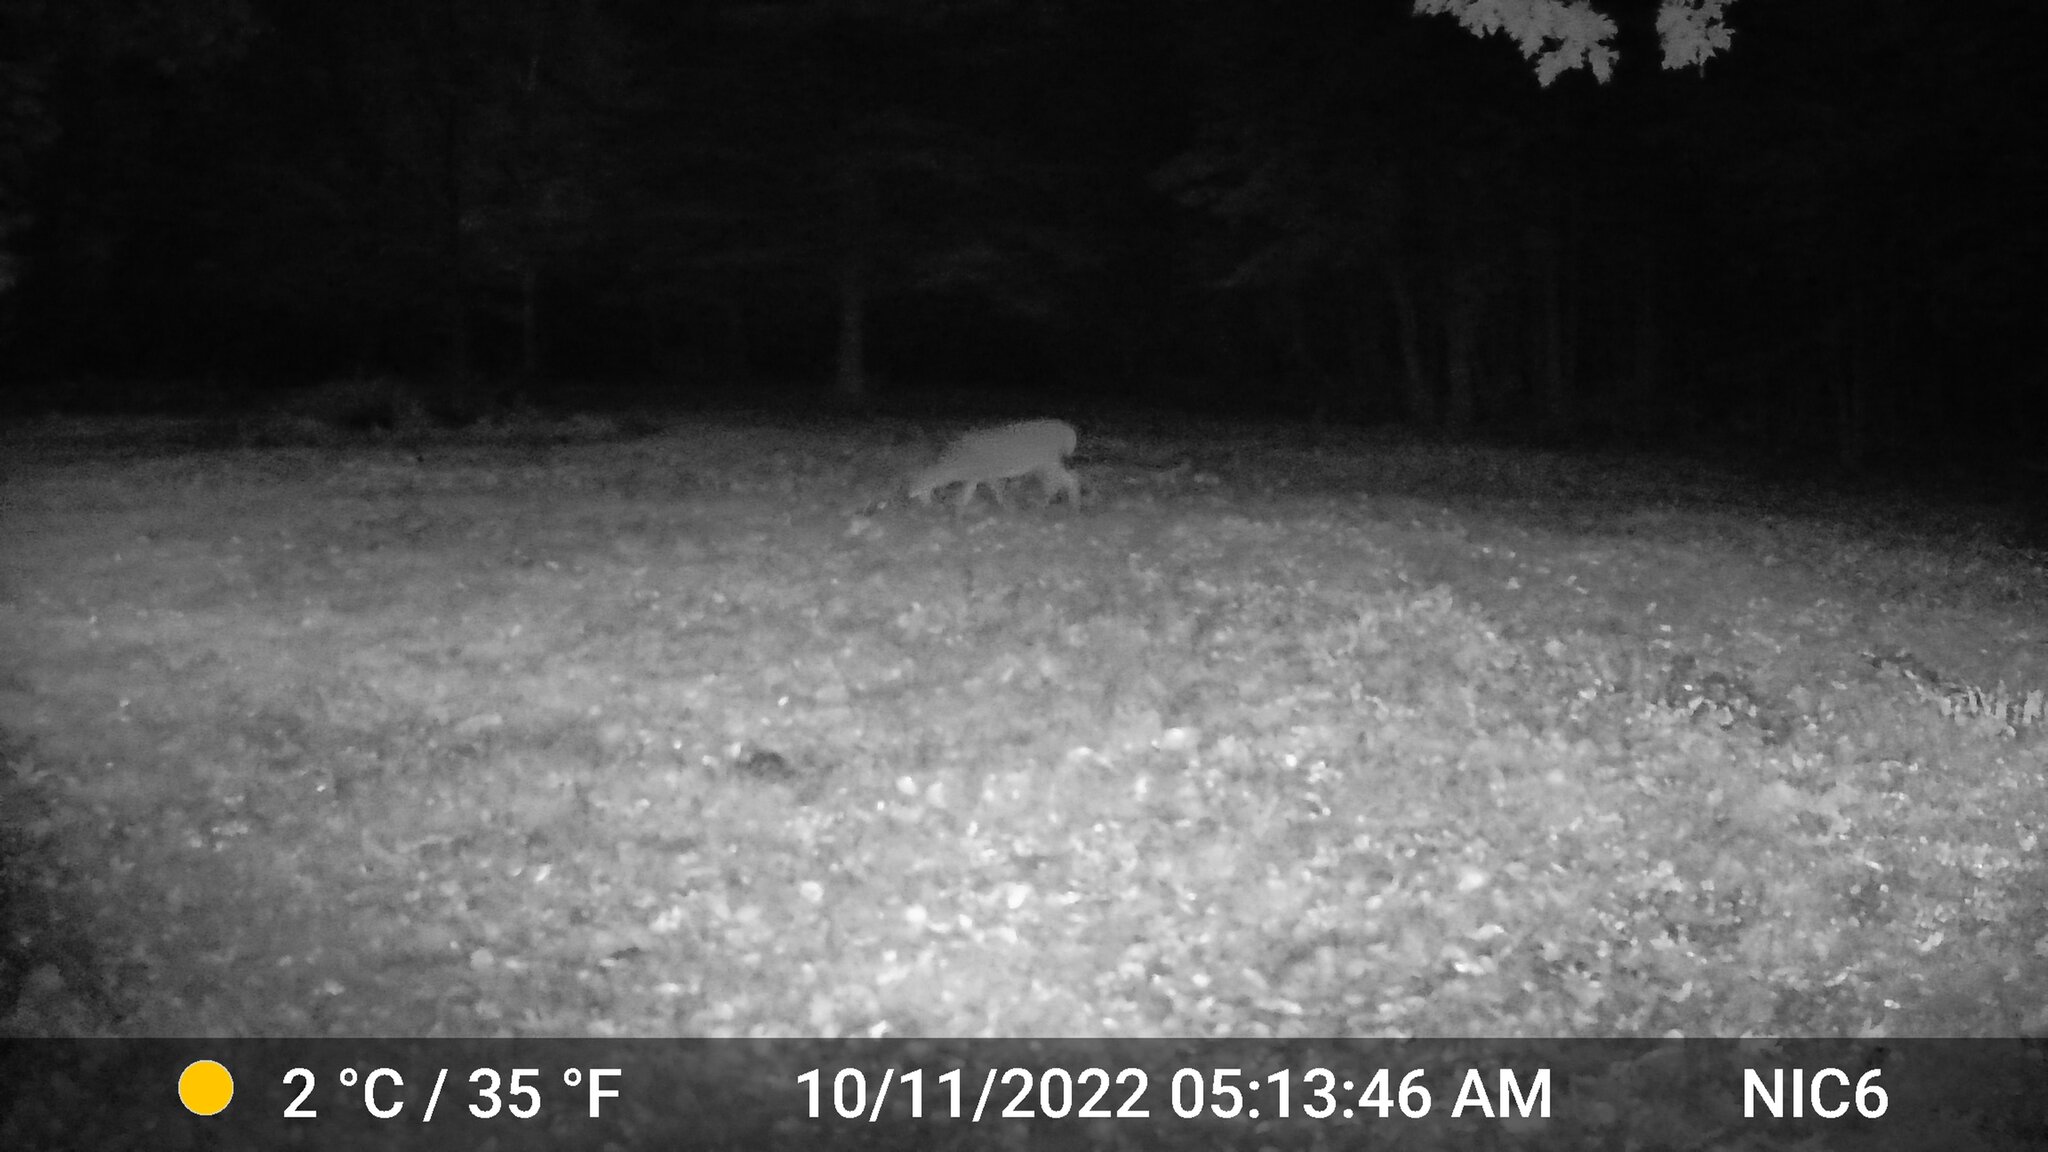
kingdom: Animalia
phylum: Chordata
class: Mammalia
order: Artiodactyla
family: Cervidae
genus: Odocoileus
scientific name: Odocoileus virginianus
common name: White-tailed deer
